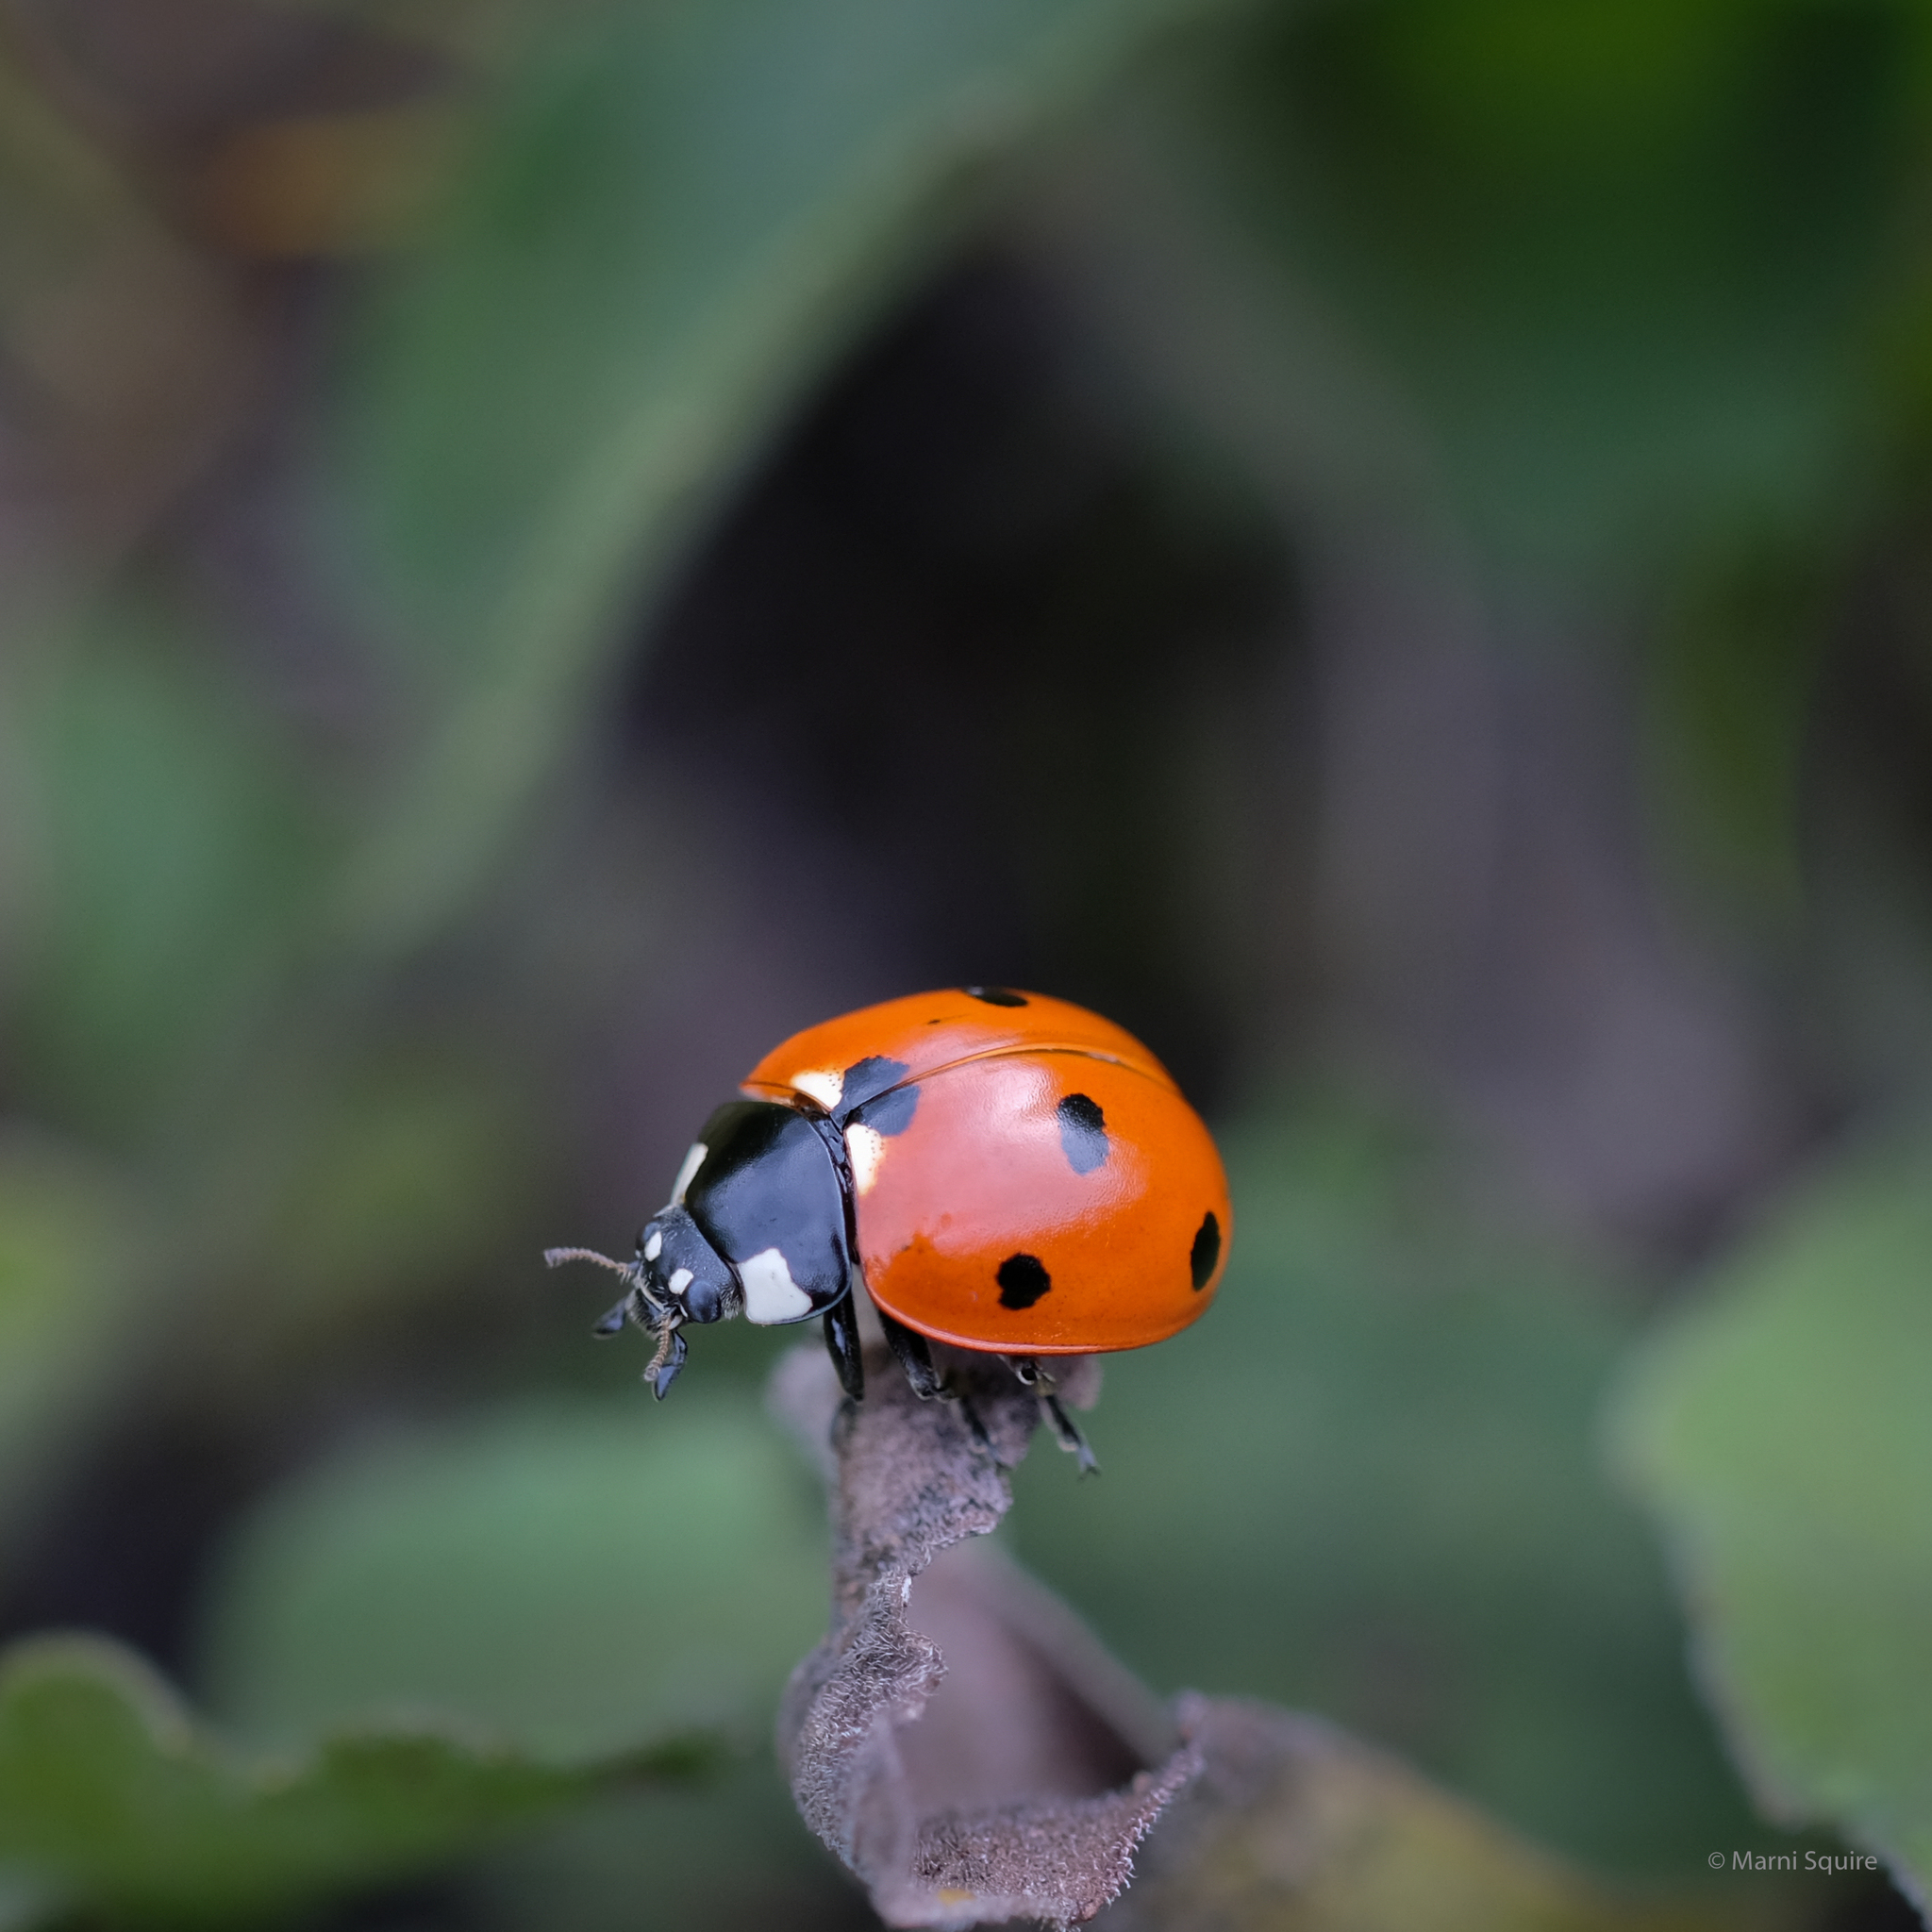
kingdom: Animalia
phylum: Arthropoda
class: Insecta
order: Coleoptera
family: Coccinellidae
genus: Coccinella
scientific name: Coccinella septempunctata
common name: Sevenspotted lady beetle
